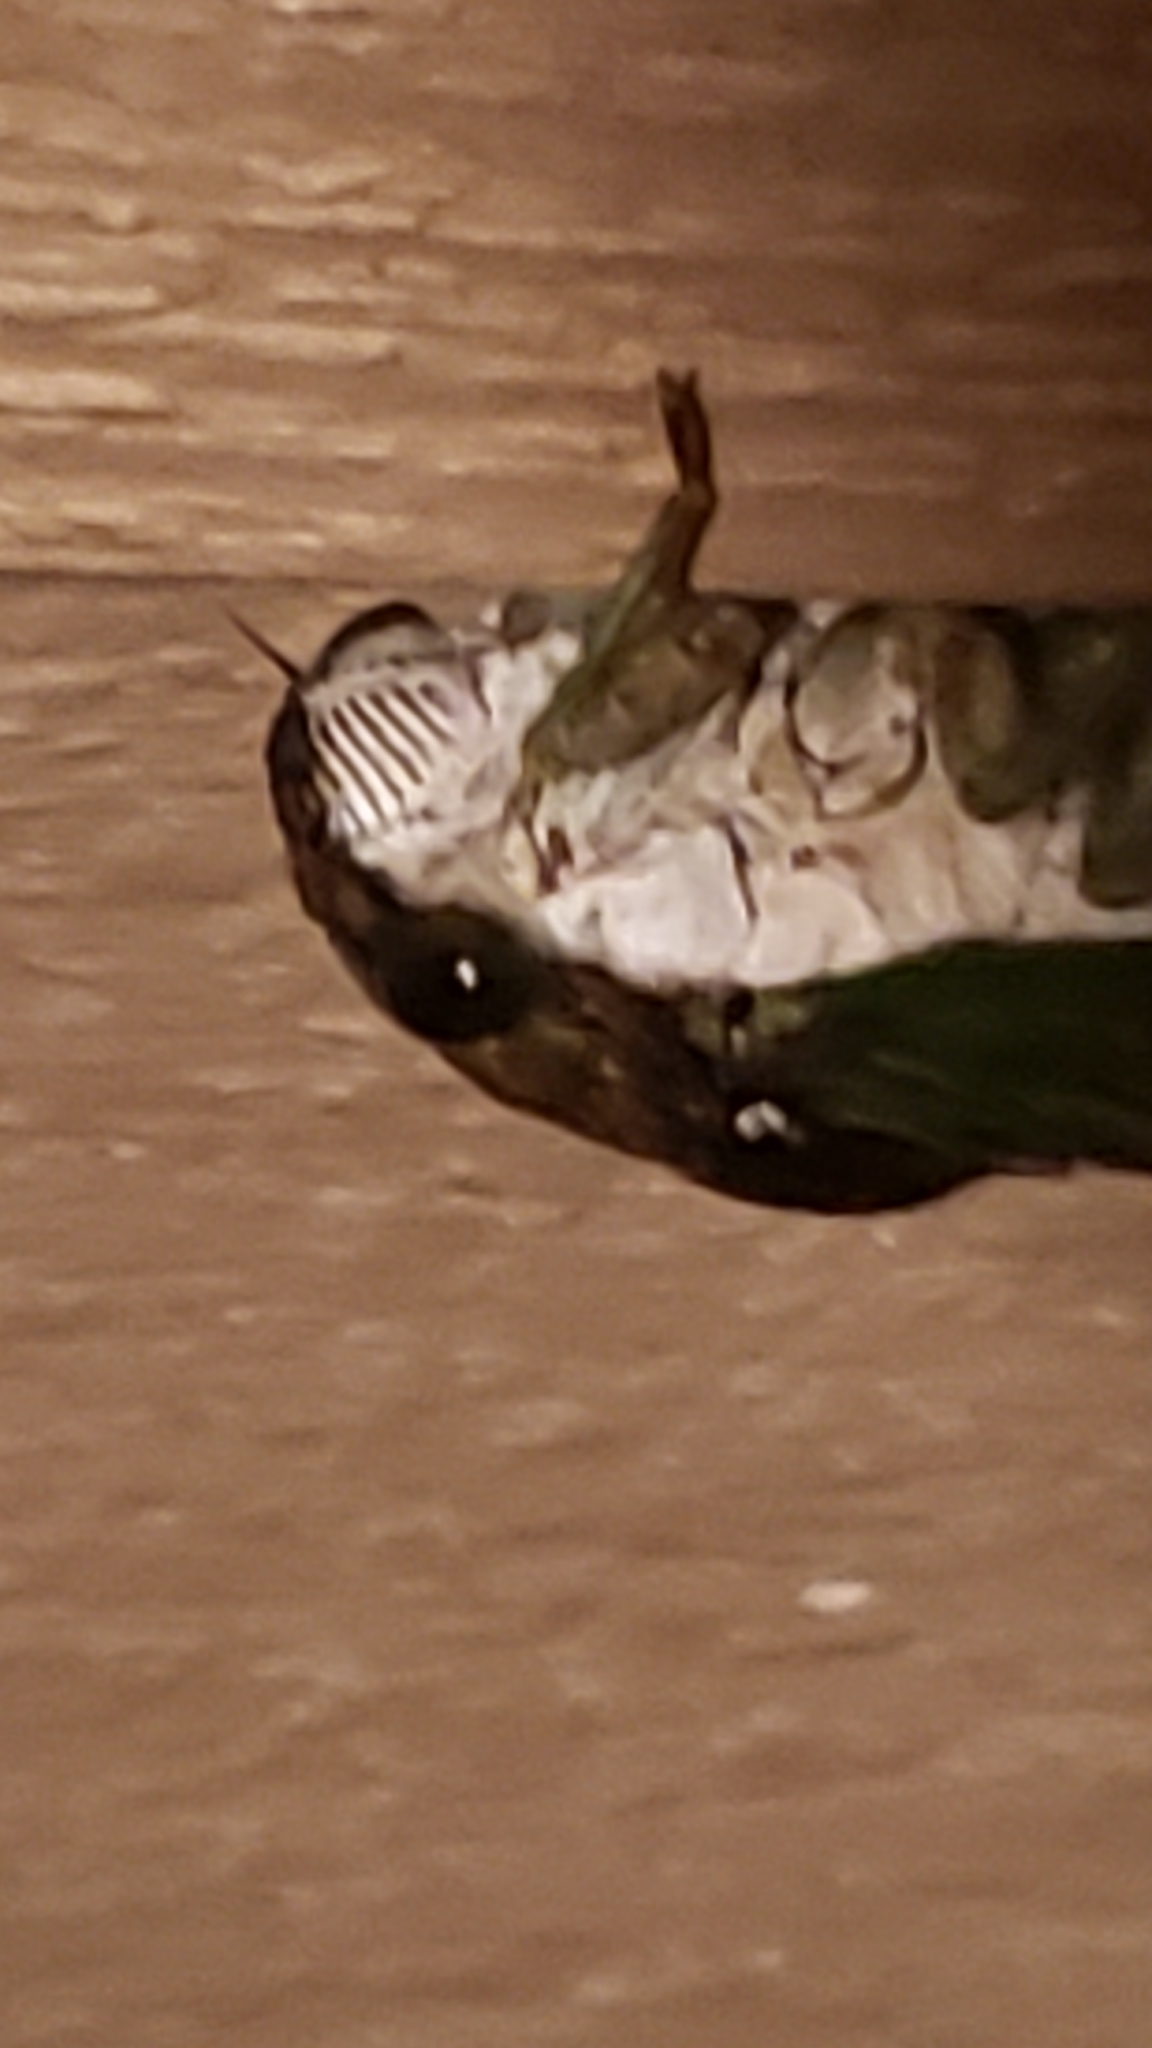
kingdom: Animalia
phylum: Arthropoda
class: Insecta
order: Hemiptera
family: Cicadidae
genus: Neotibicen
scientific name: Neotibicen tibicen
